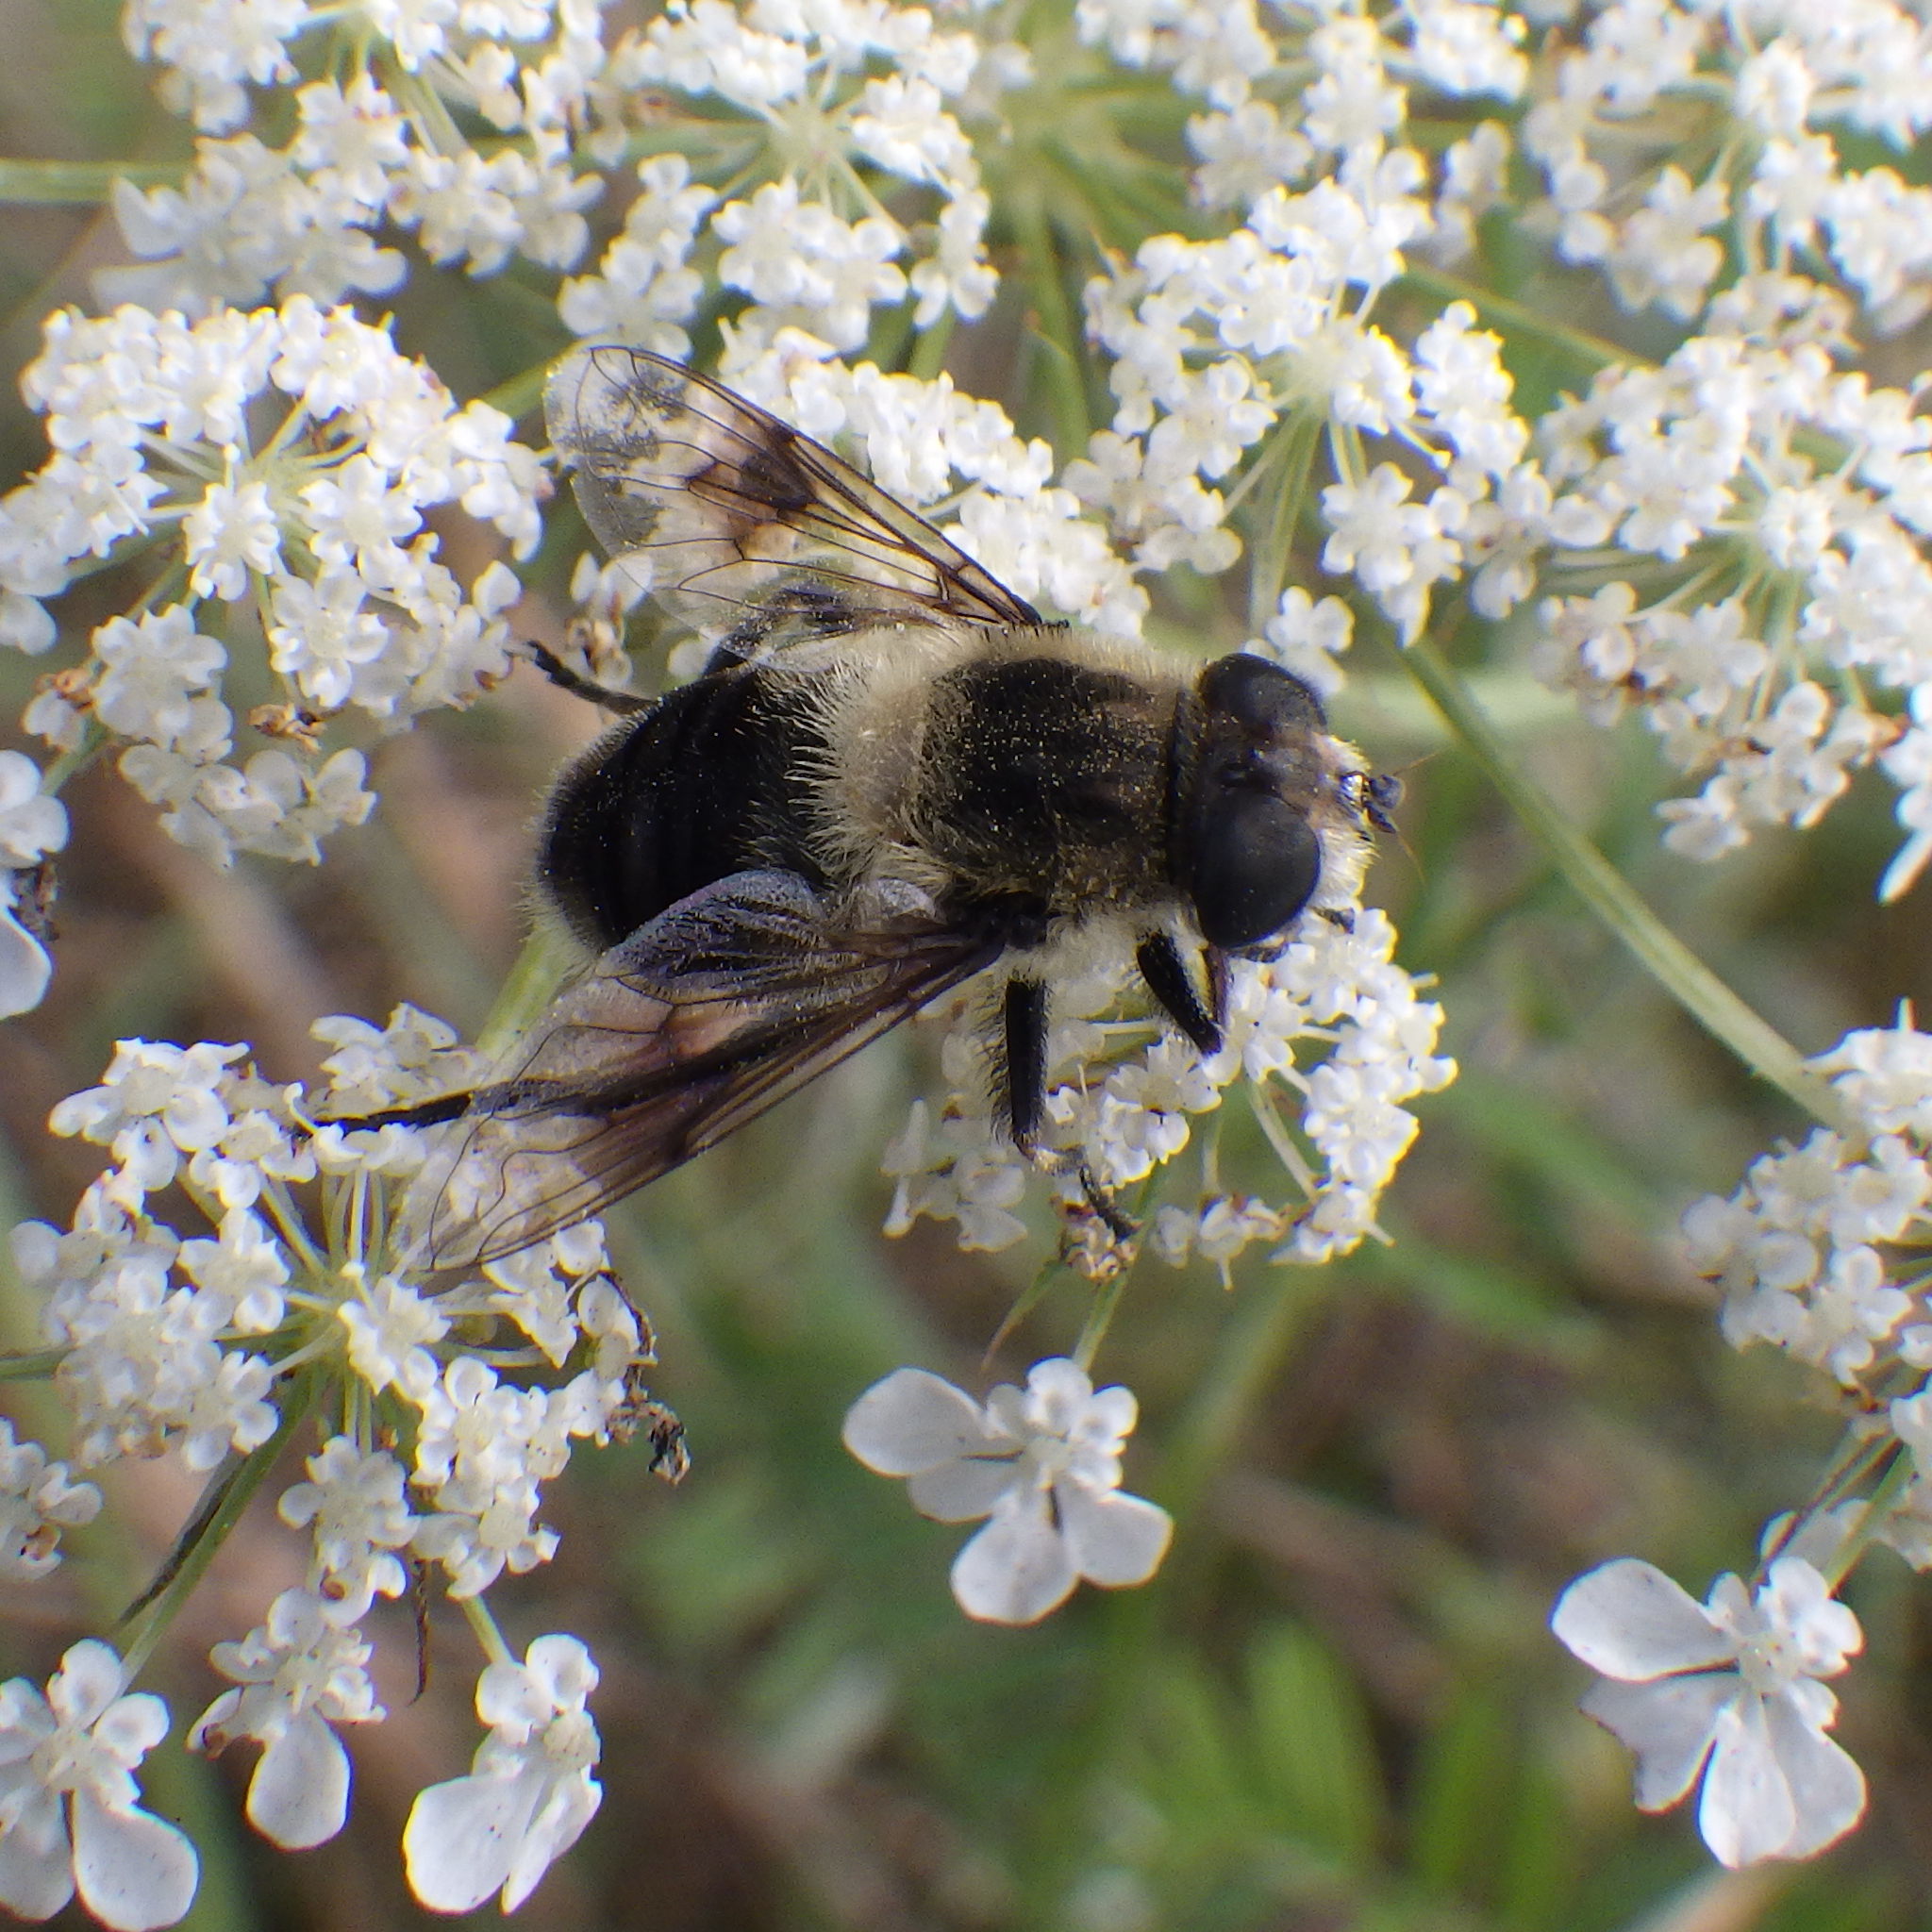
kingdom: Animalia
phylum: Arthropoda
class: Insecta
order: Diptera
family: Syrphidae
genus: Eristalis
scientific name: Eristalis anthophorina
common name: Orange-spotted drone fly
